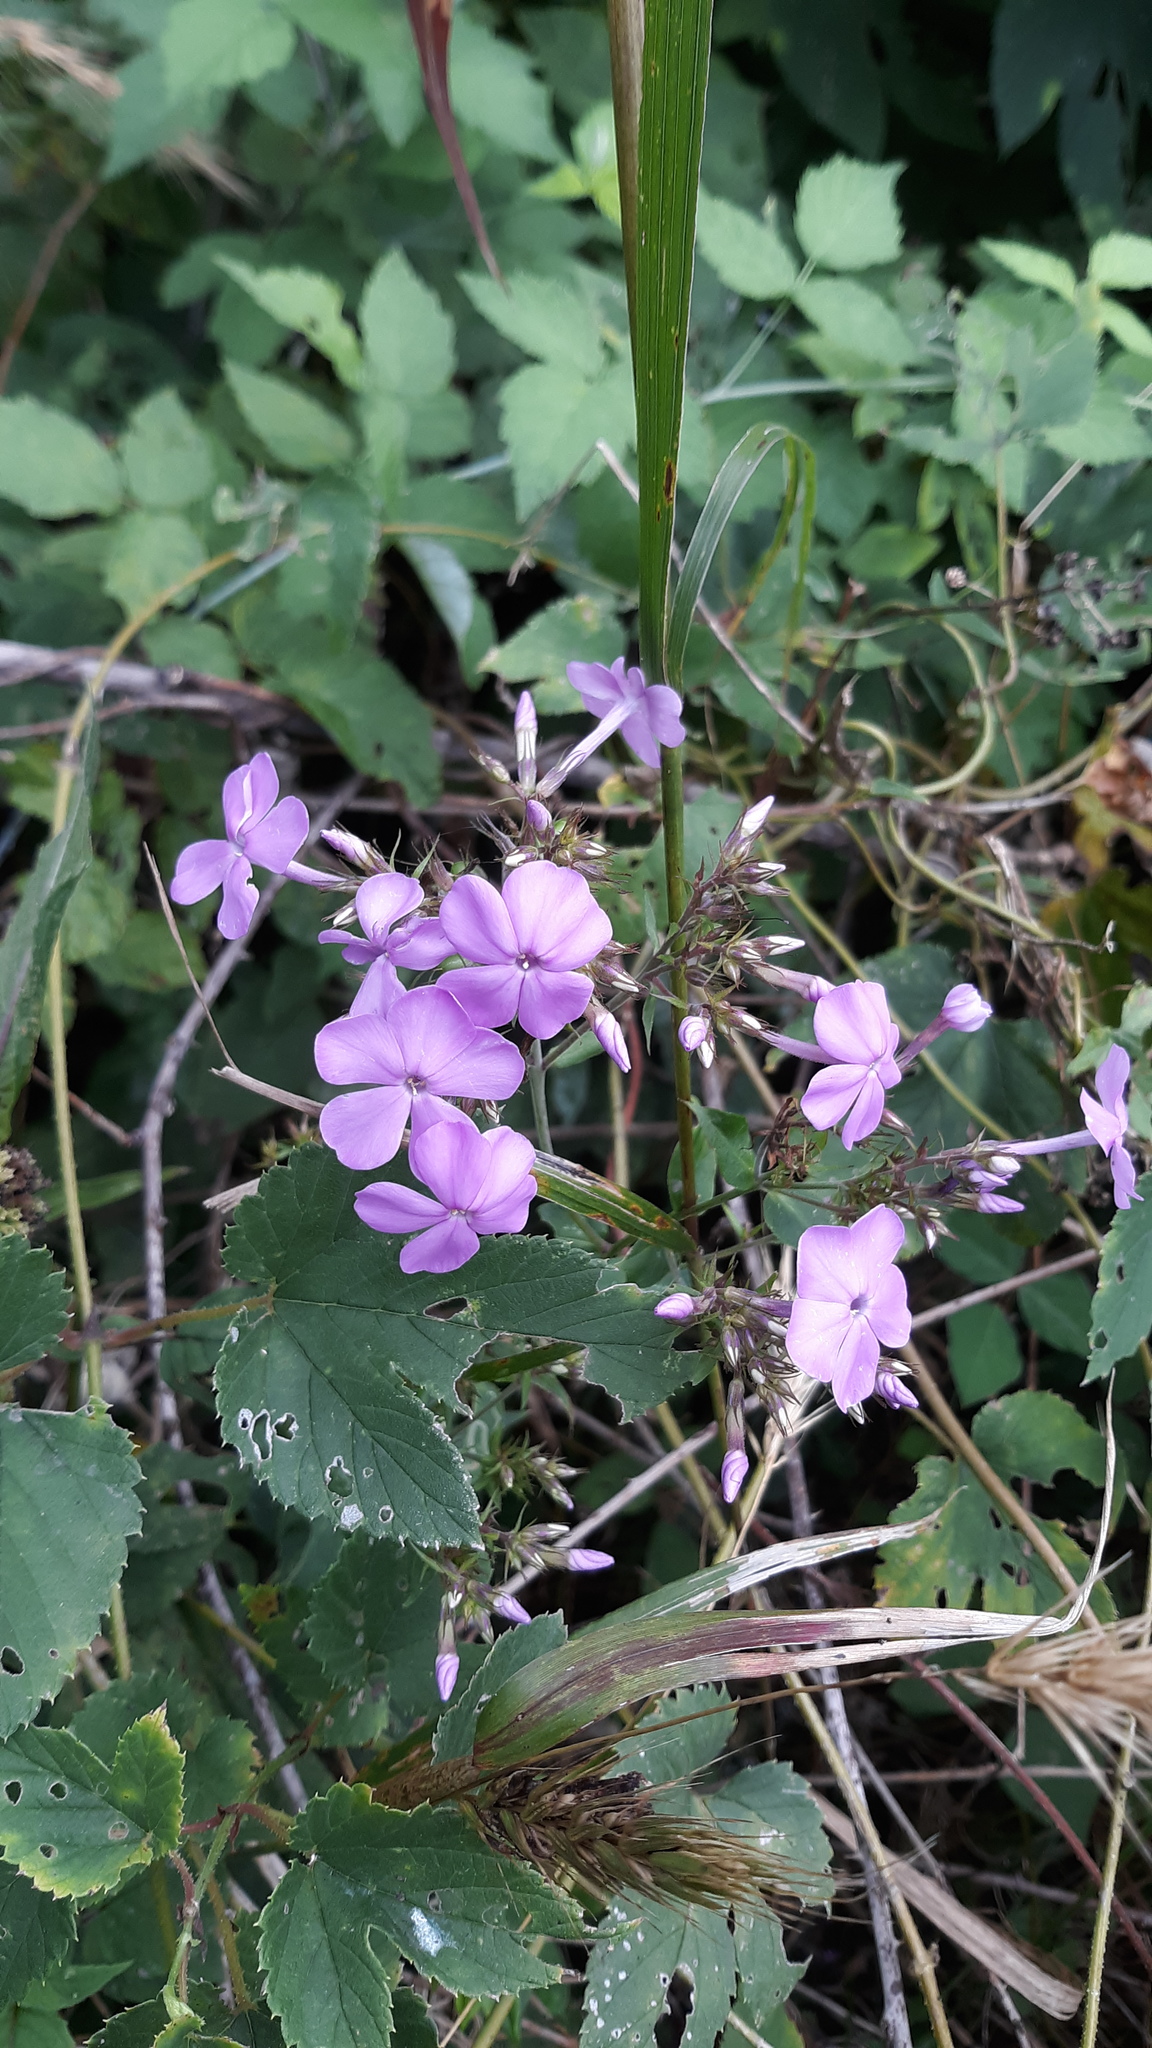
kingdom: Plantae
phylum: Tracheophyta
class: Magnoliopsida
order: Ericales
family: Polemoniaceae
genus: Phlox
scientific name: Phlox paniculata
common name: Fall phlox
